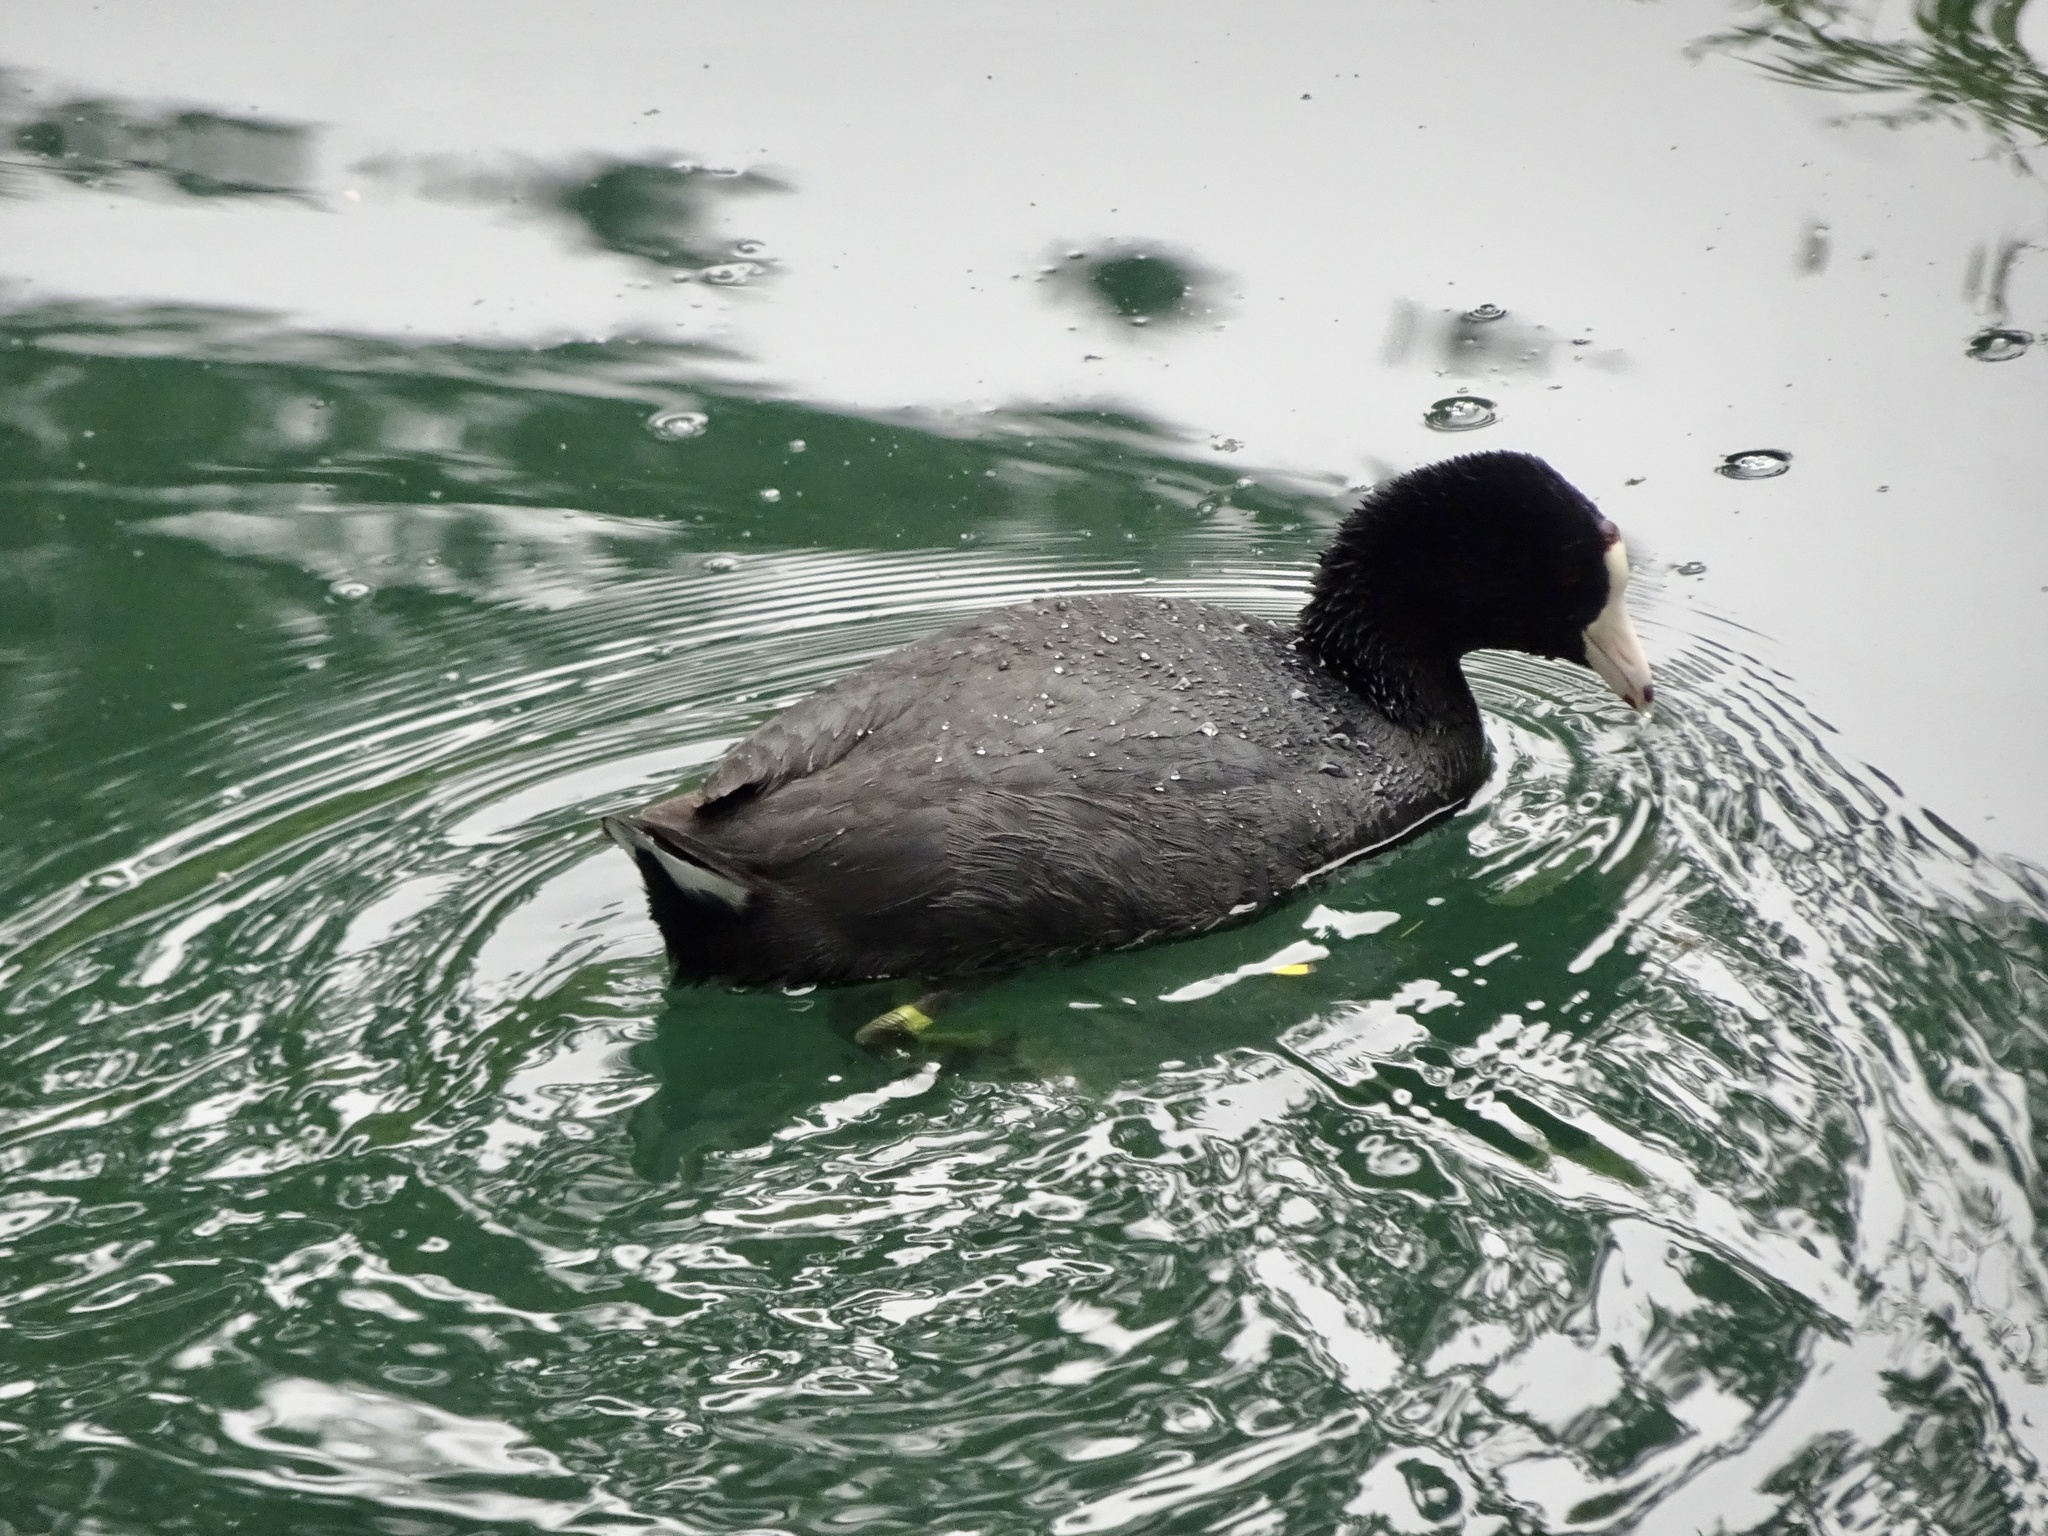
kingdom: Animalia
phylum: Chordata
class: Aves
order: Gruiformes
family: Rallidae
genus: Fulica
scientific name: Fulica americana
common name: American coot
